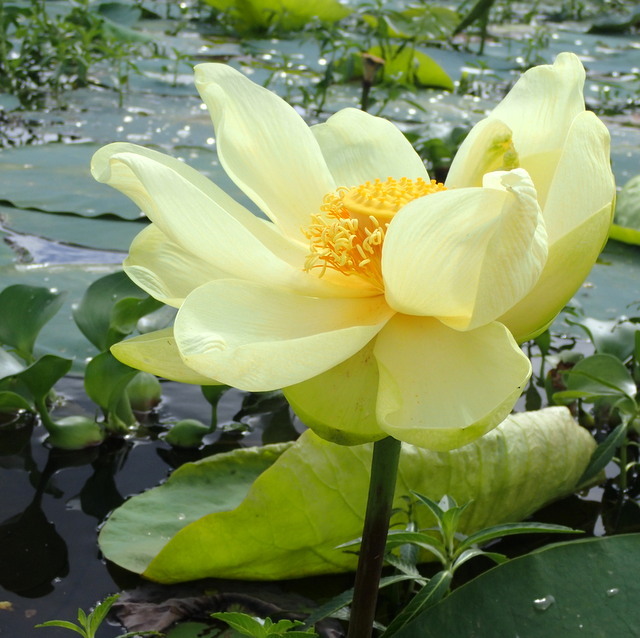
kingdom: Plantae
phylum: Tracheophyta
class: Magnoliopsida
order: Proteales
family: Nelumbonaceae
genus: Nelumbo
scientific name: Nelumbo lutea
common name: American lotus
